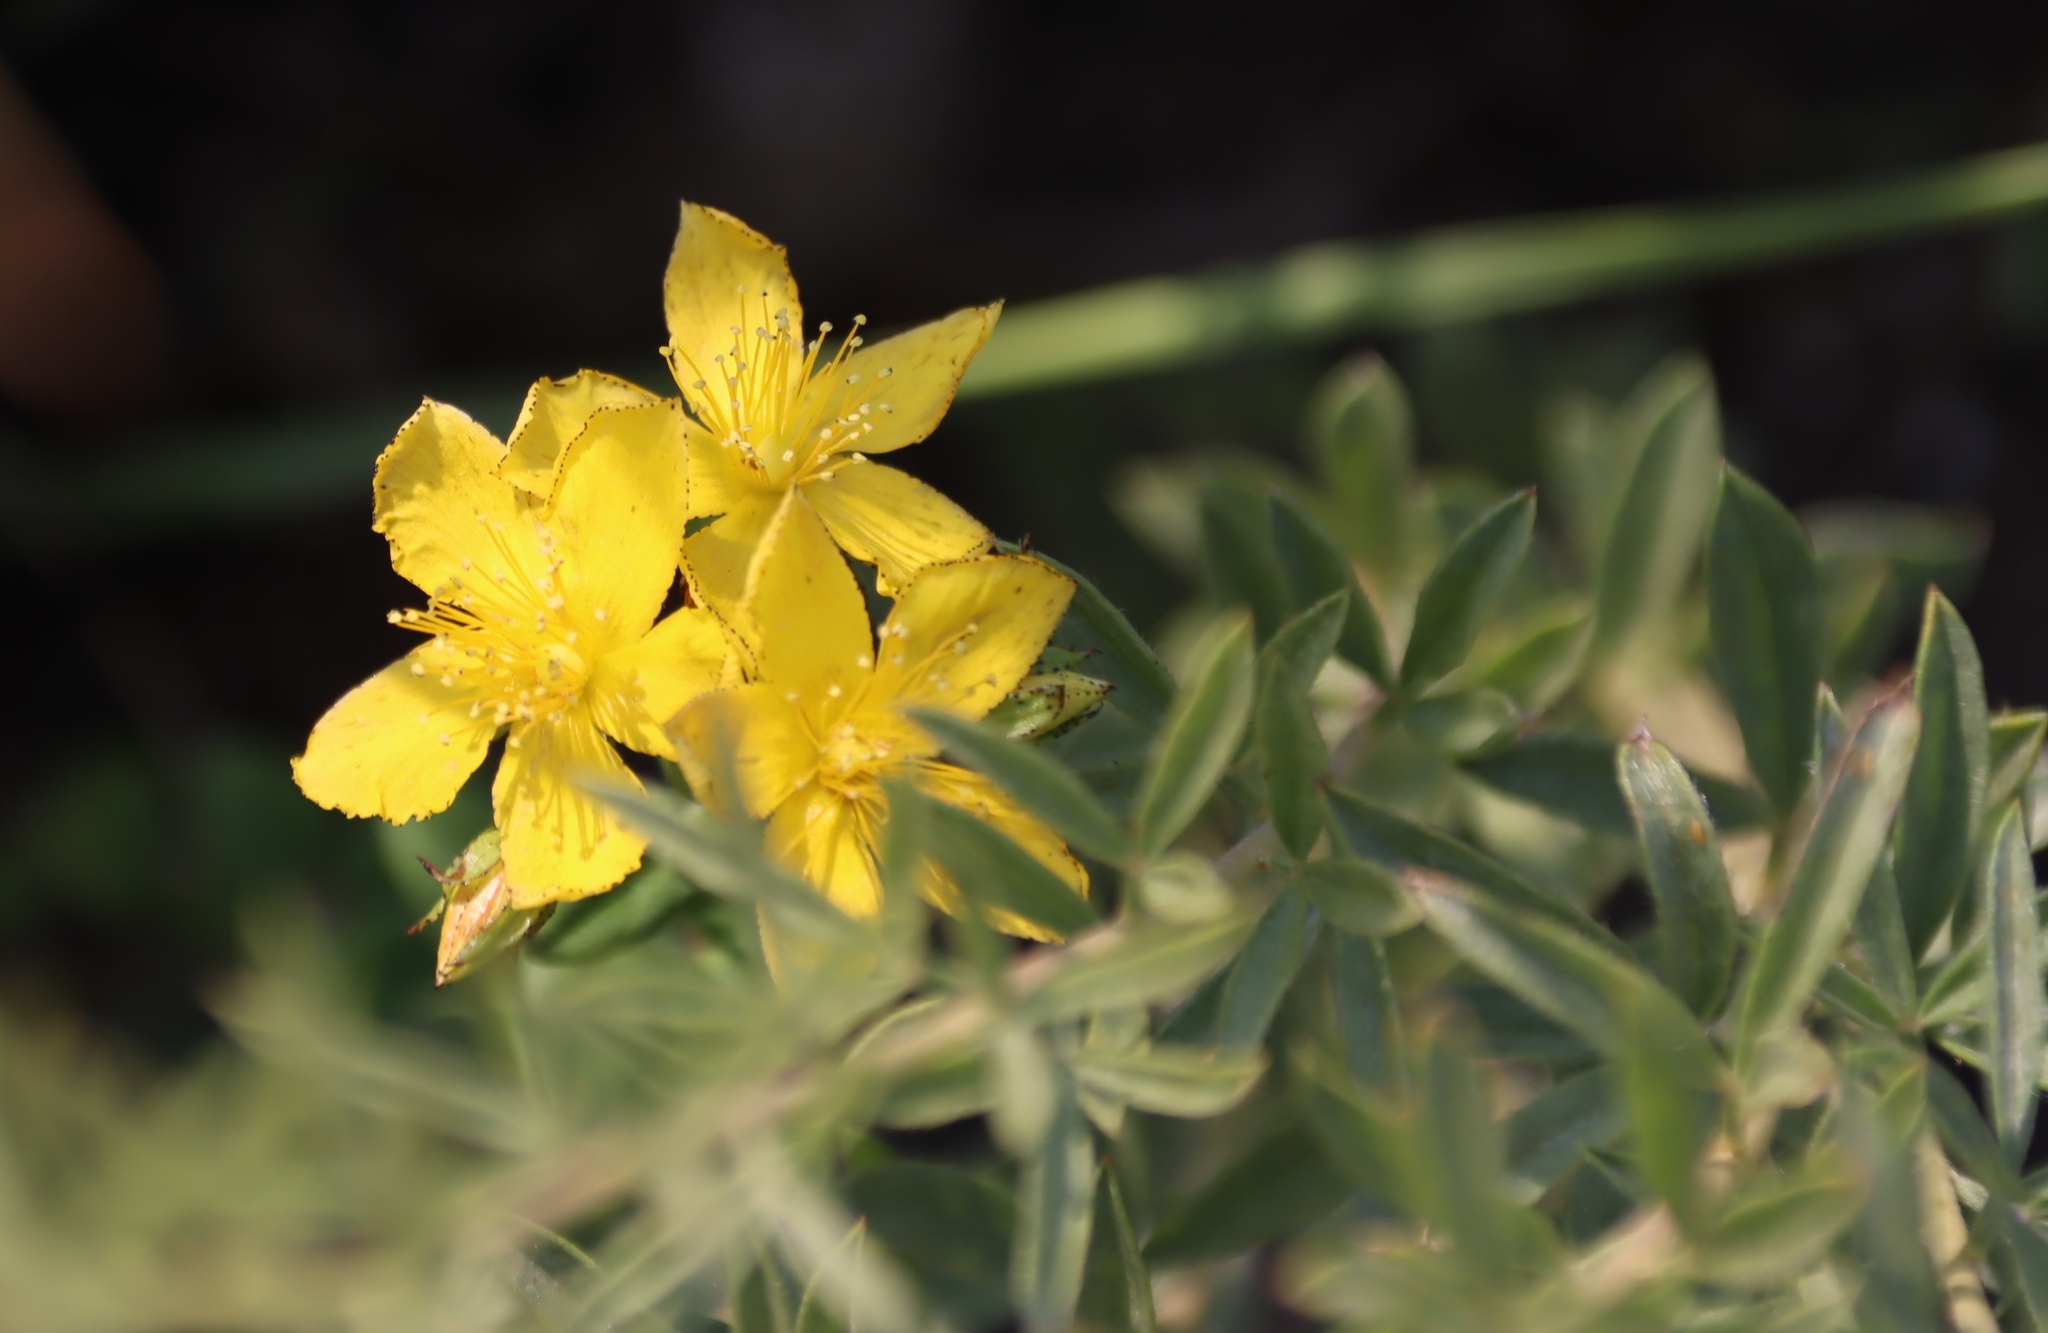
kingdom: Plantae
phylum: Tracheophyta
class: Magnoliopsida
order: Malpighiales
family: Hypericaceae
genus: Hypericum
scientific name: Hypericum aethiopicum
